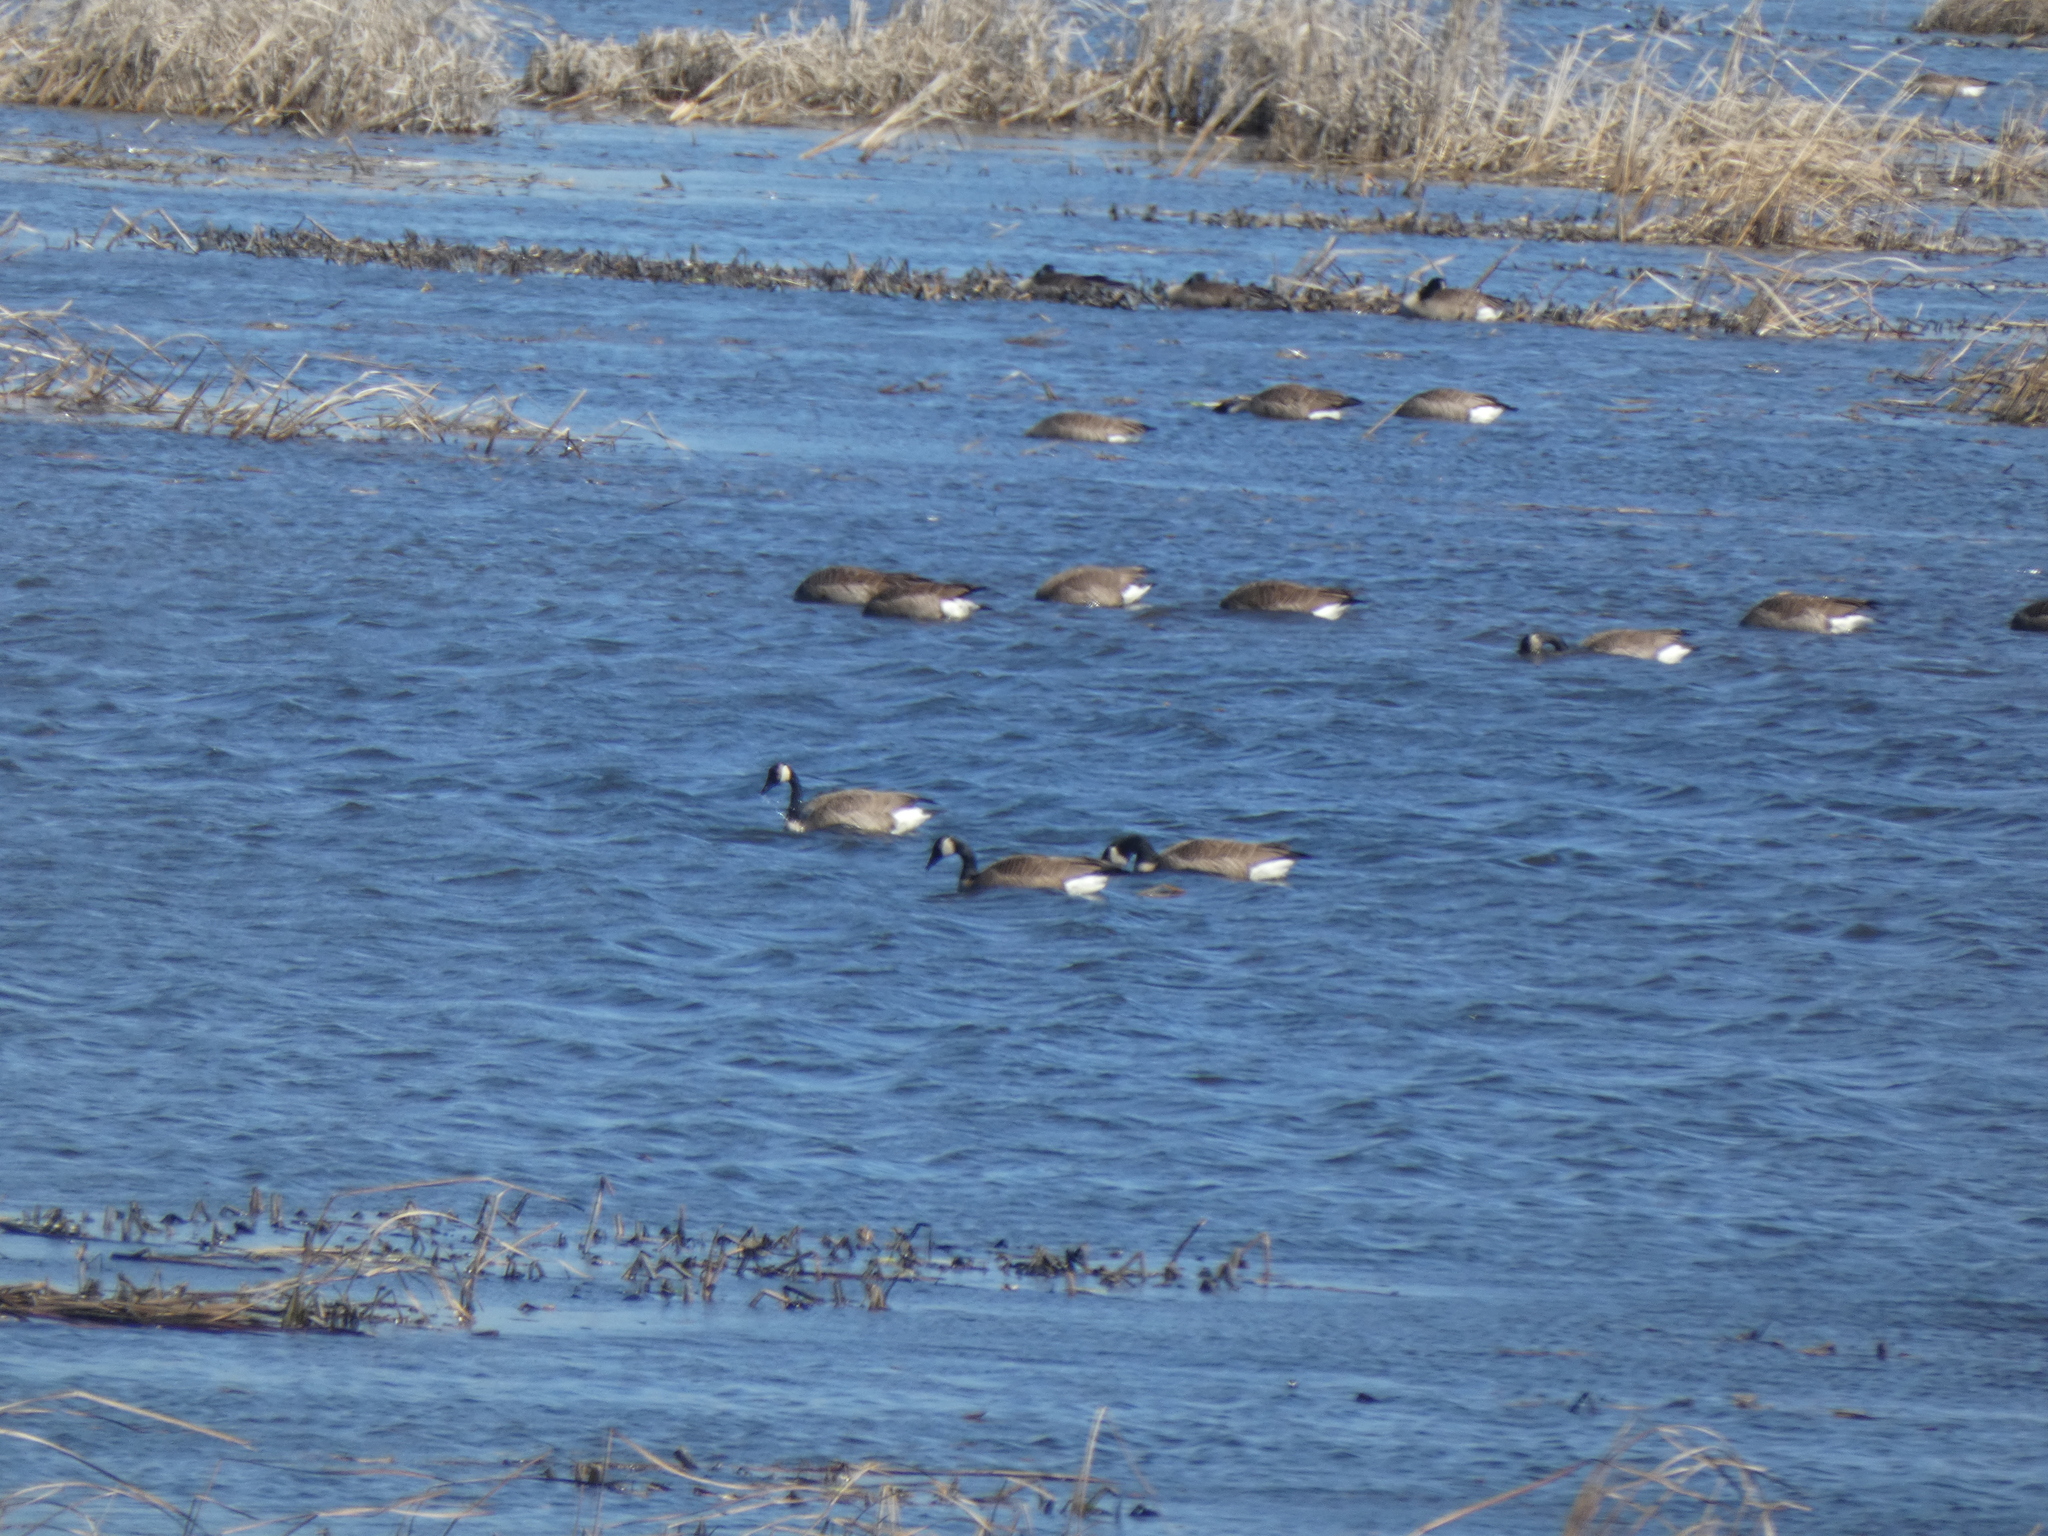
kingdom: Animalia
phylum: Chordata
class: Aves
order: Anseriformes
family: Anatidae
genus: Branta
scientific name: Branta canadensis
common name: Canada goose
